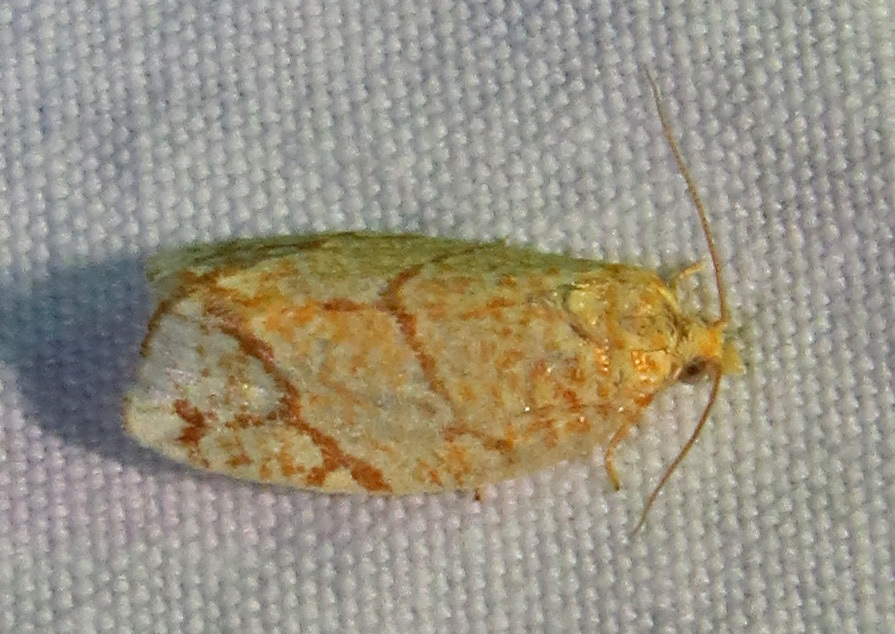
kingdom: Animalia
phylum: Arthropoda
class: Insecta
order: Lepidoptera
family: Tortricidae
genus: Argyrotaenia
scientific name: Argyrotaenia quercifoliana
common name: Yellow-winged oak leafroller moth
